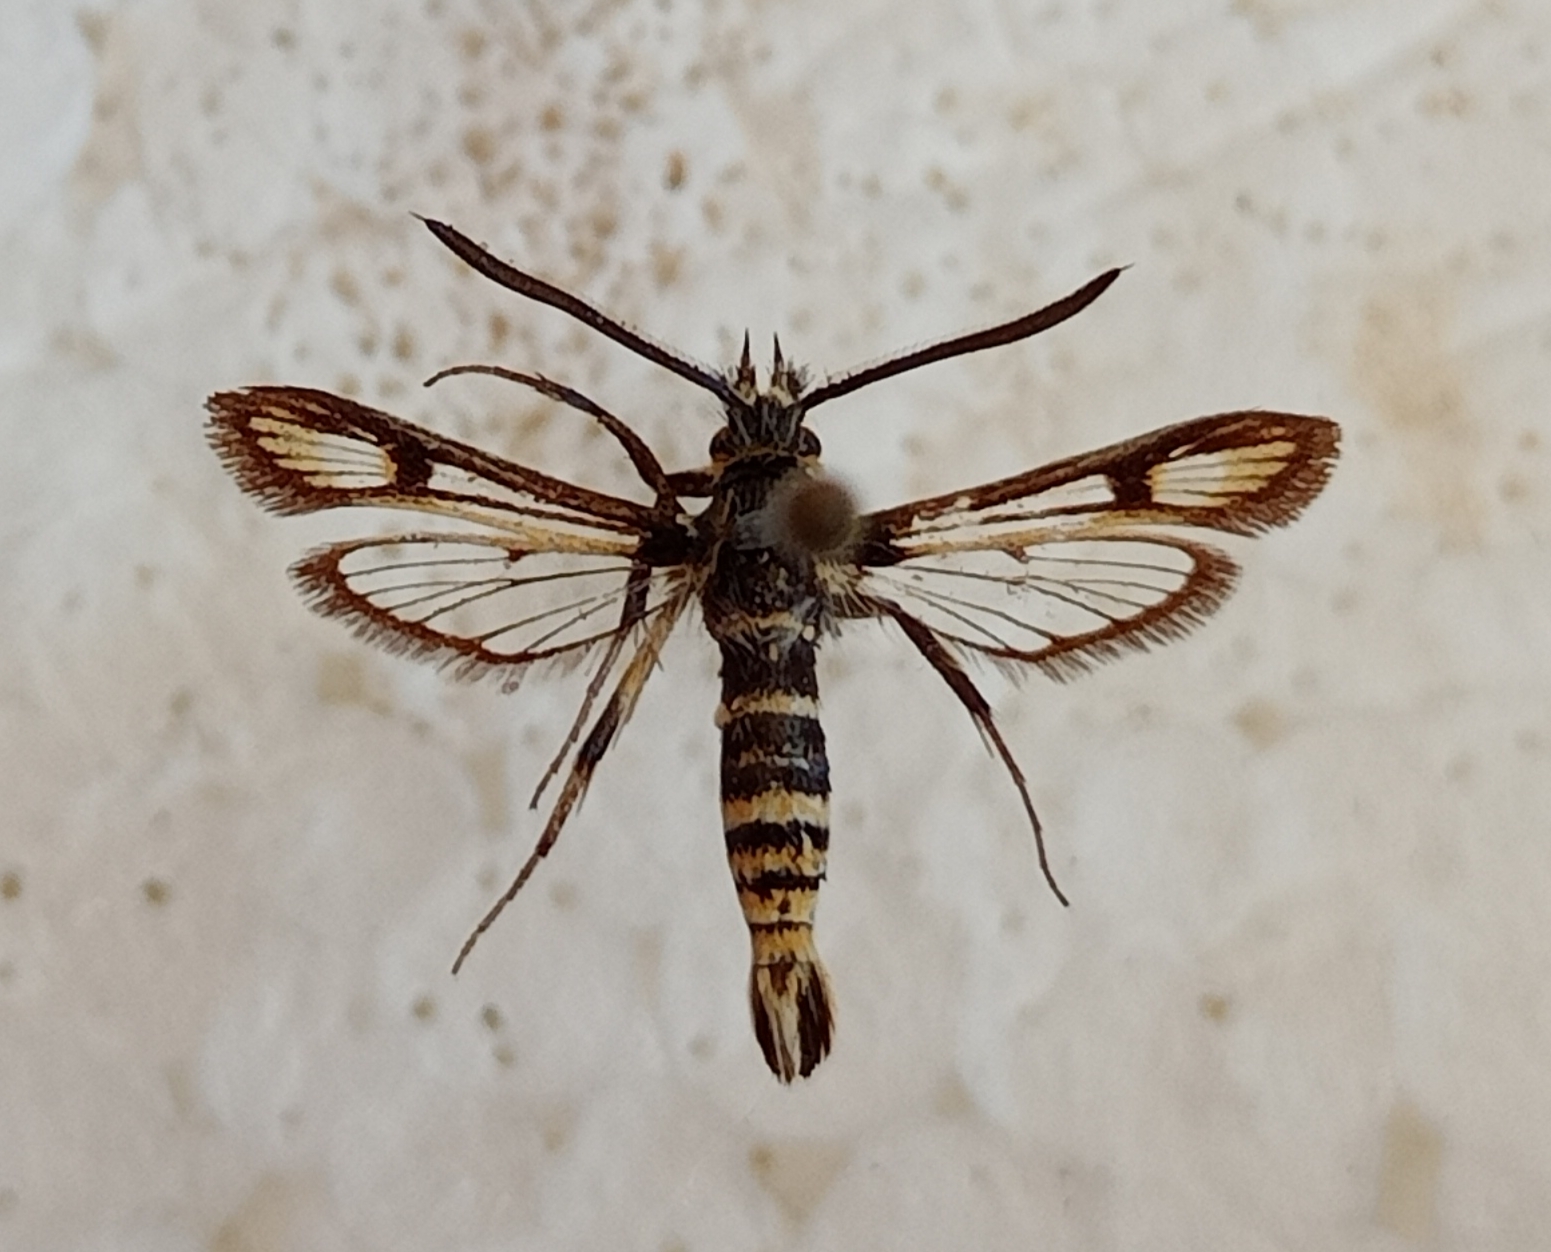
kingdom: Animalia
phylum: Arthropoda
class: Insecta
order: Lepidoptera
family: Sesiidae
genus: Bembecia
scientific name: Bembecia blanka
